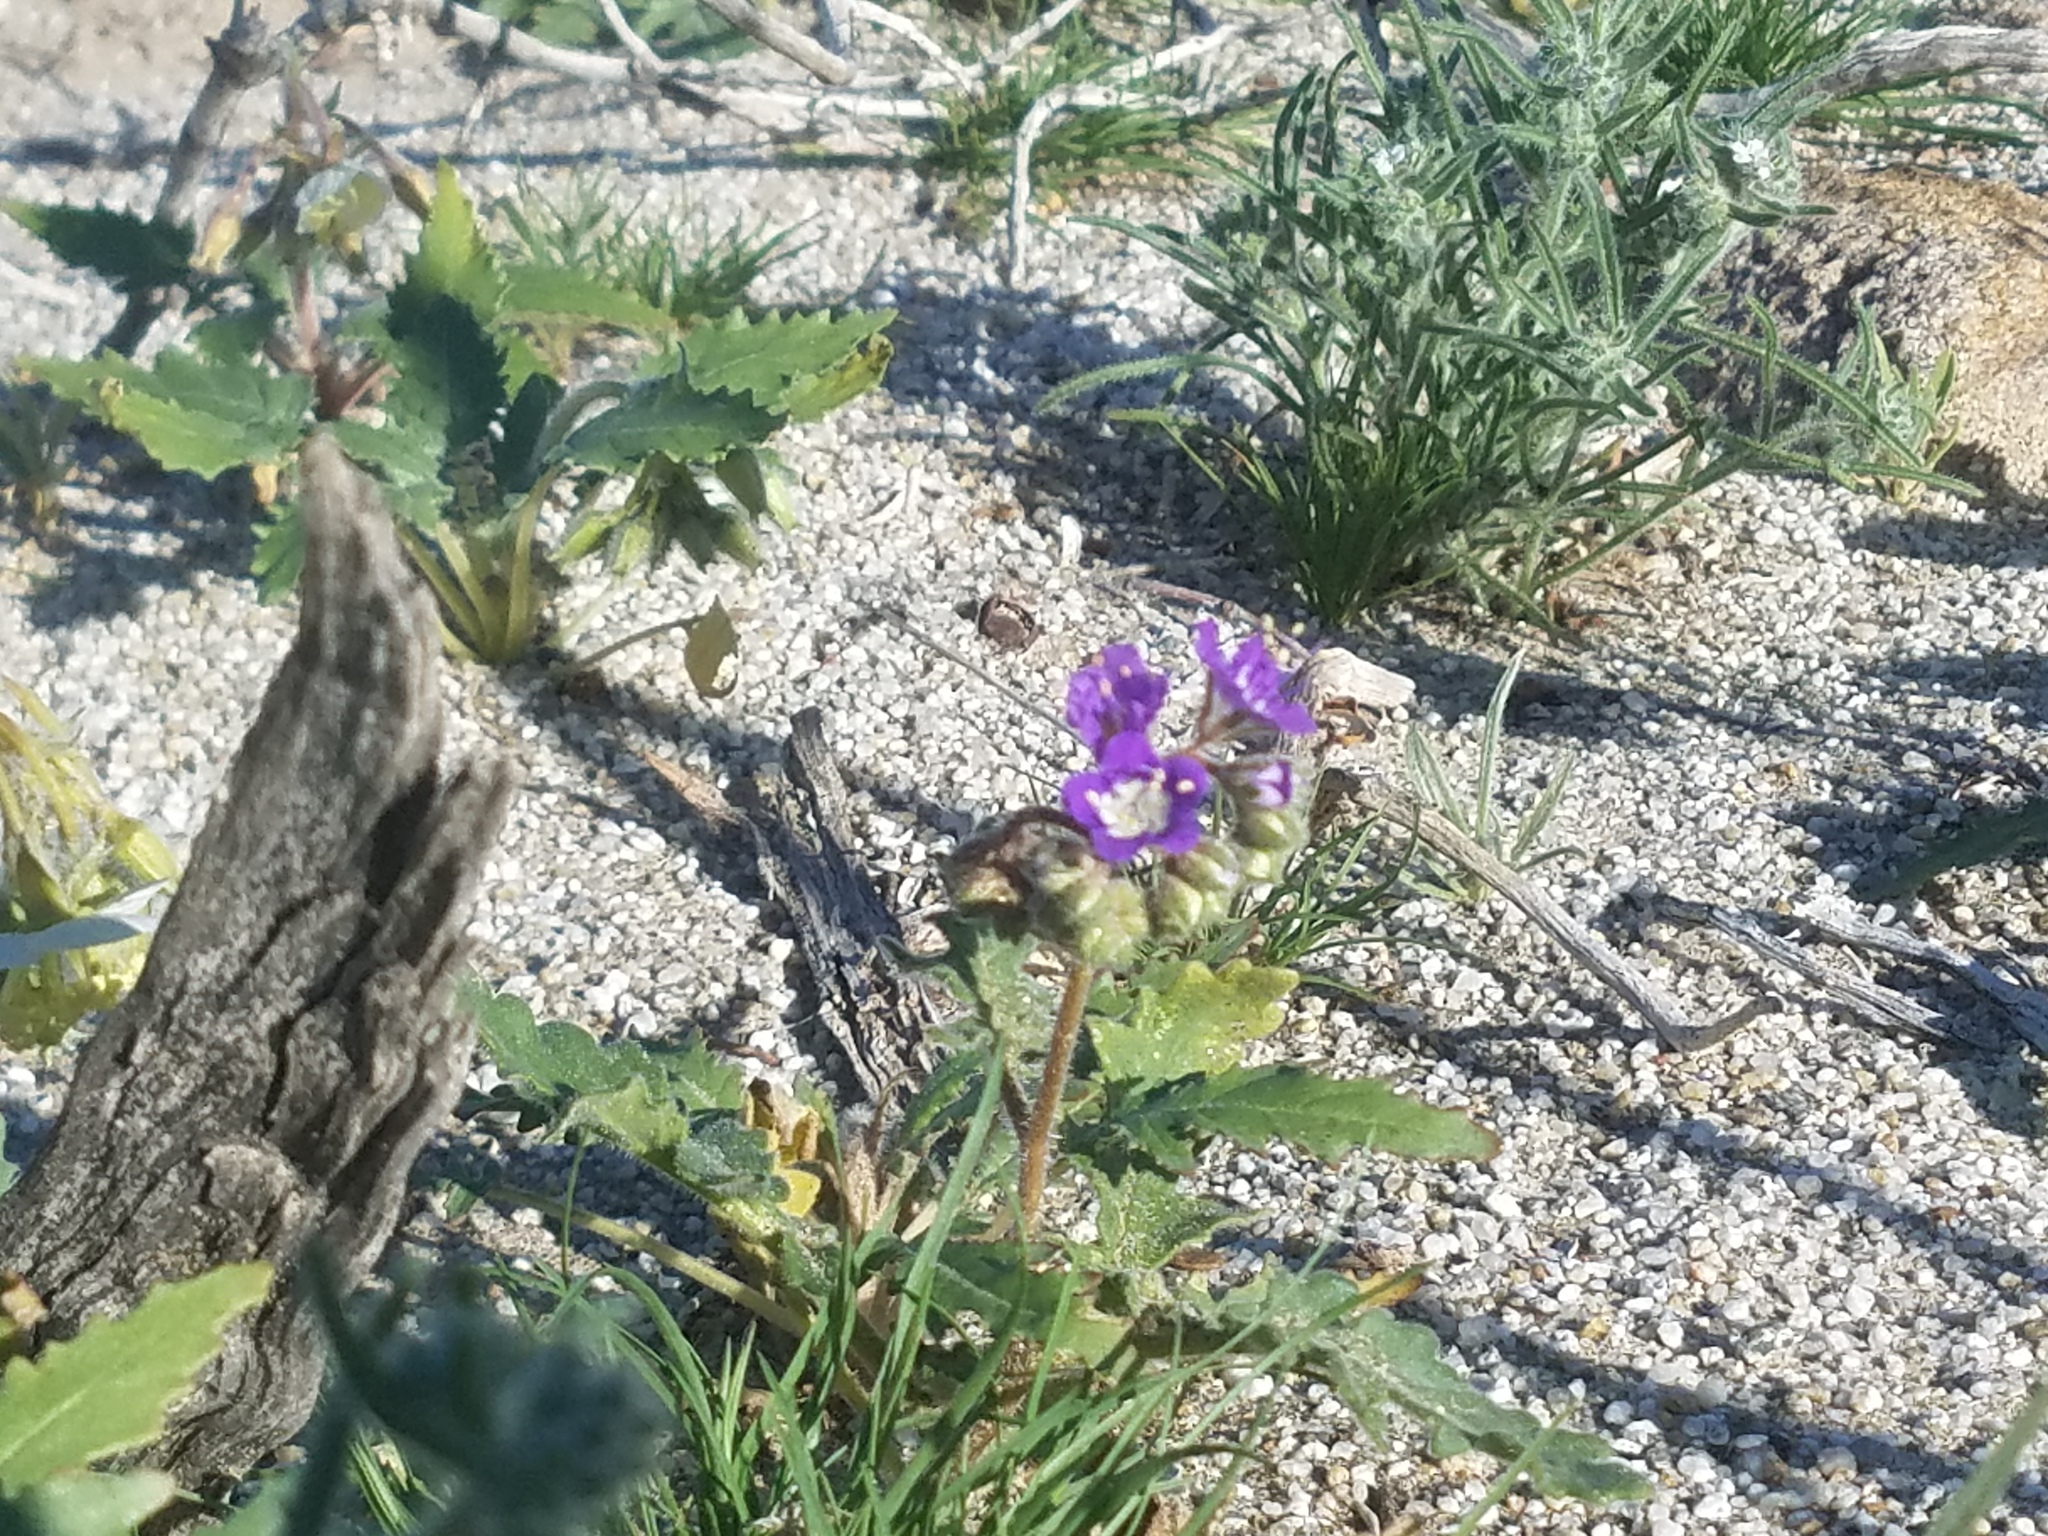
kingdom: Plantae
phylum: Tracheophyta
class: Magnoliopsida
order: Boraginales
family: Hydrophyllaceae
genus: Phacelia
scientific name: Phacelia crenulata
